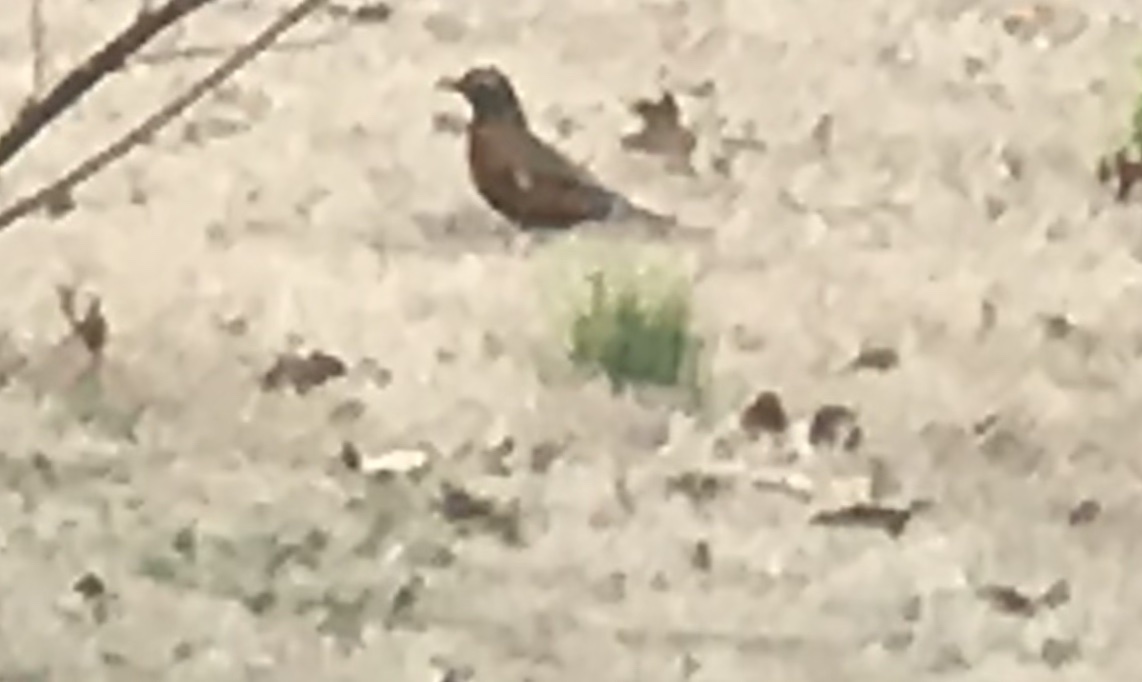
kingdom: Animalia
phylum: Chordata
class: Aves
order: Passeriformes
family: Turdidae
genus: Turdus
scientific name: Turdus migratorius
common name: American robin
